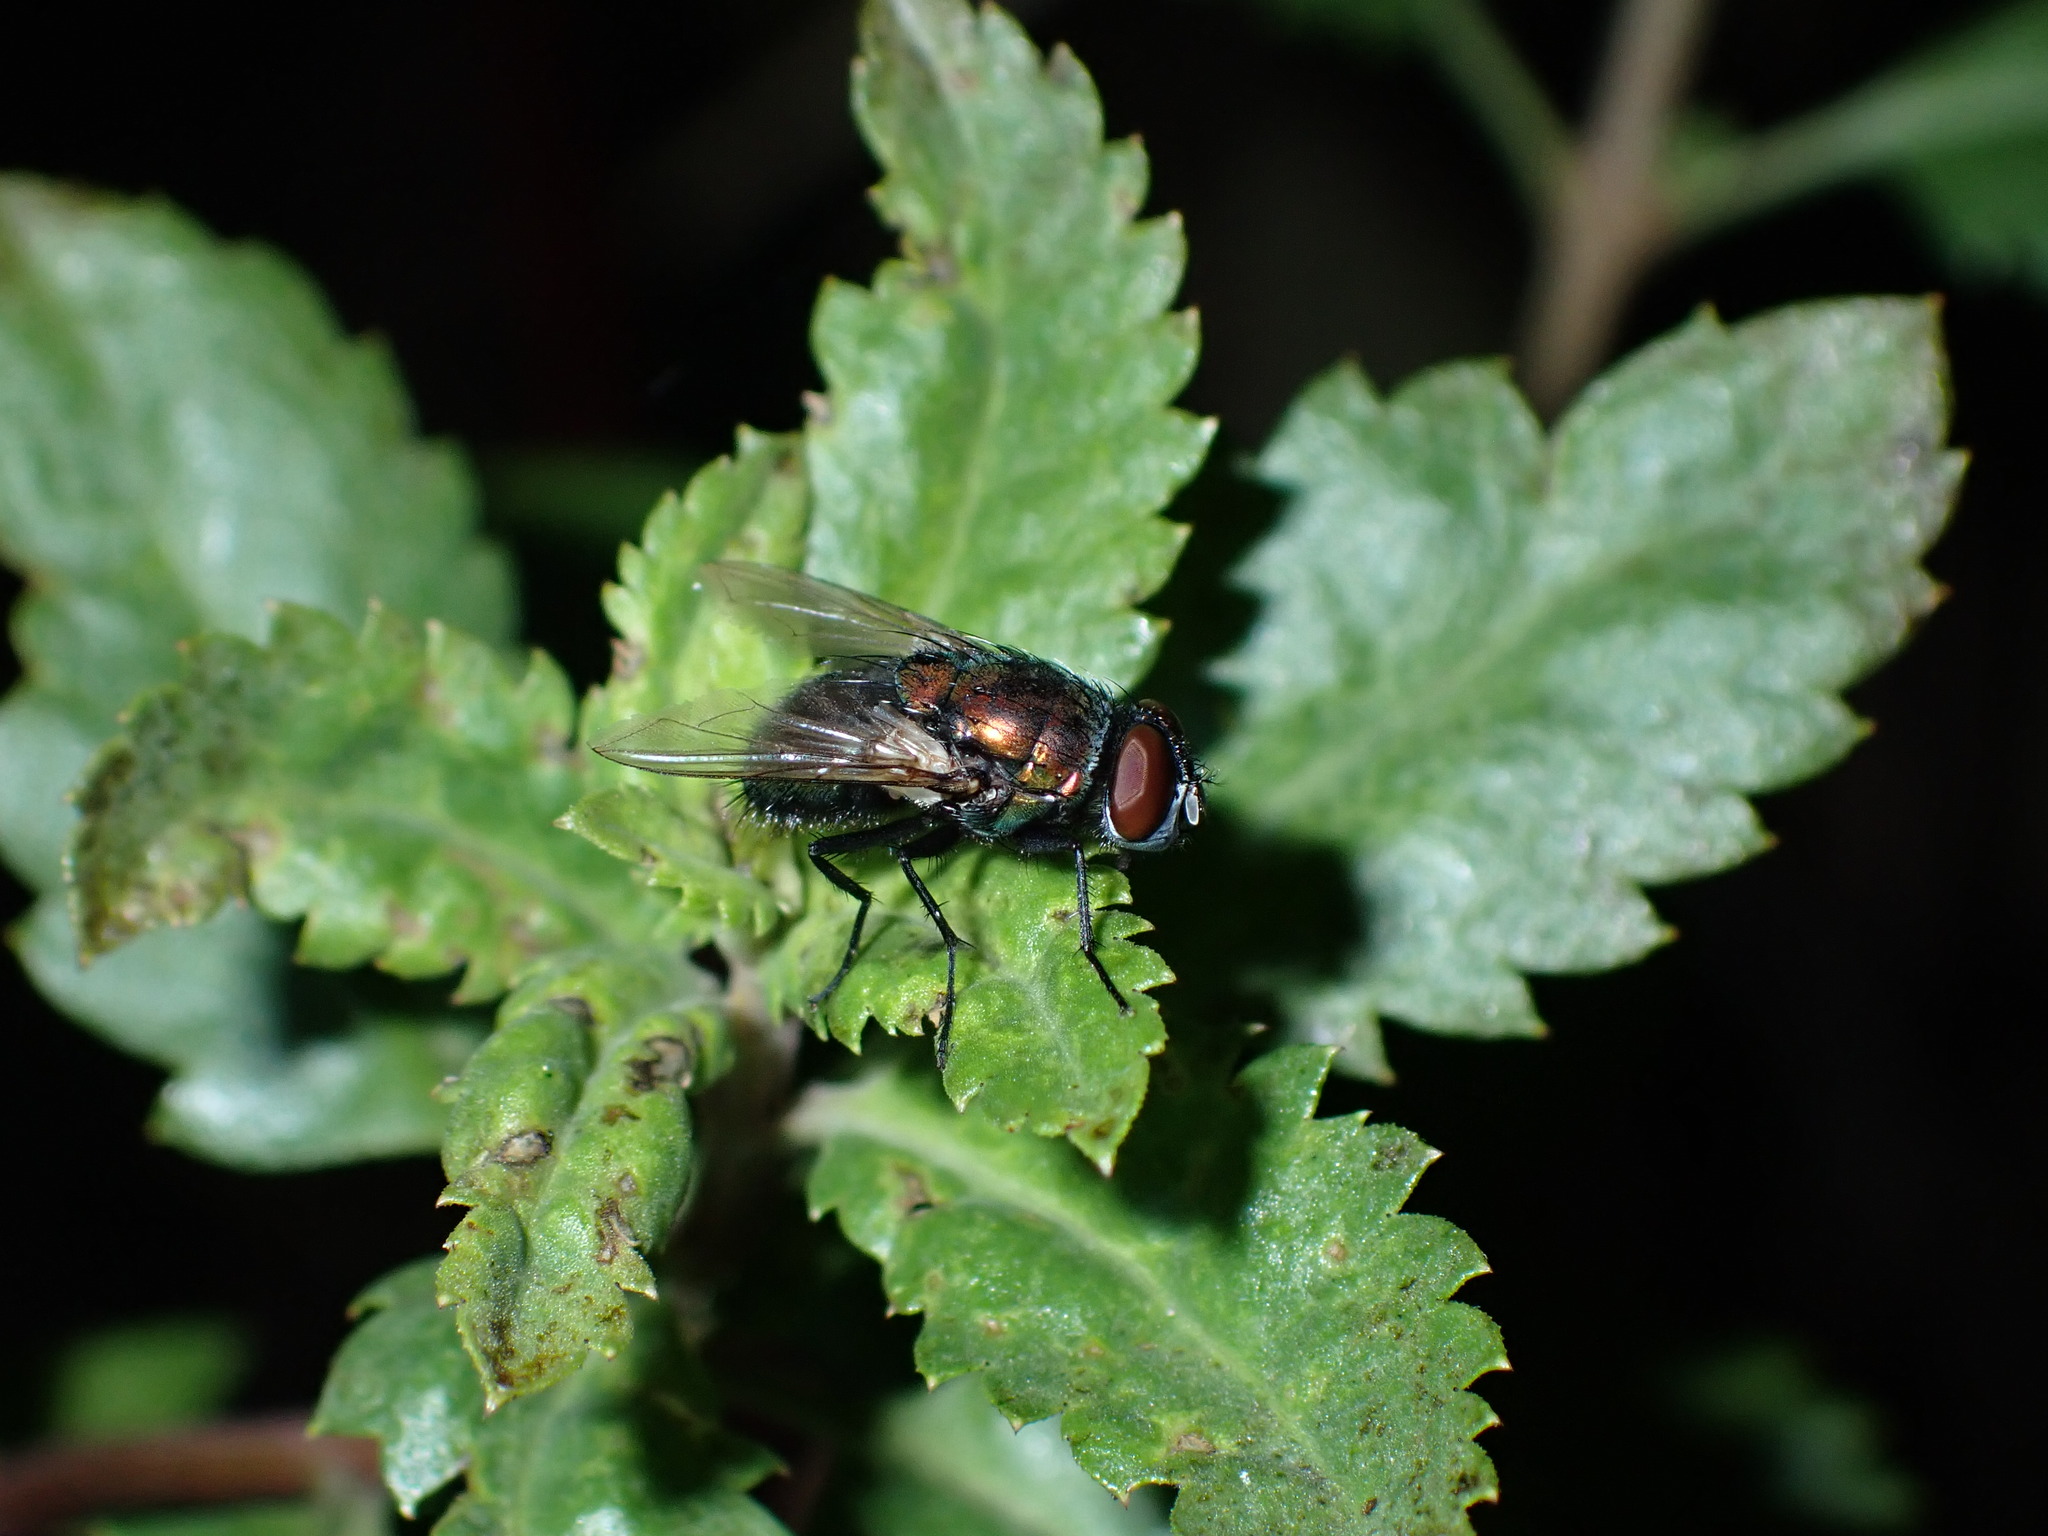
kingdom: Animalia
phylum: Arthropoda
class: Insecta
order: Diptera
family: Calliphoridae
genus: Lucilia
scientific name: Lucilia sericata
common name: Blow fly
